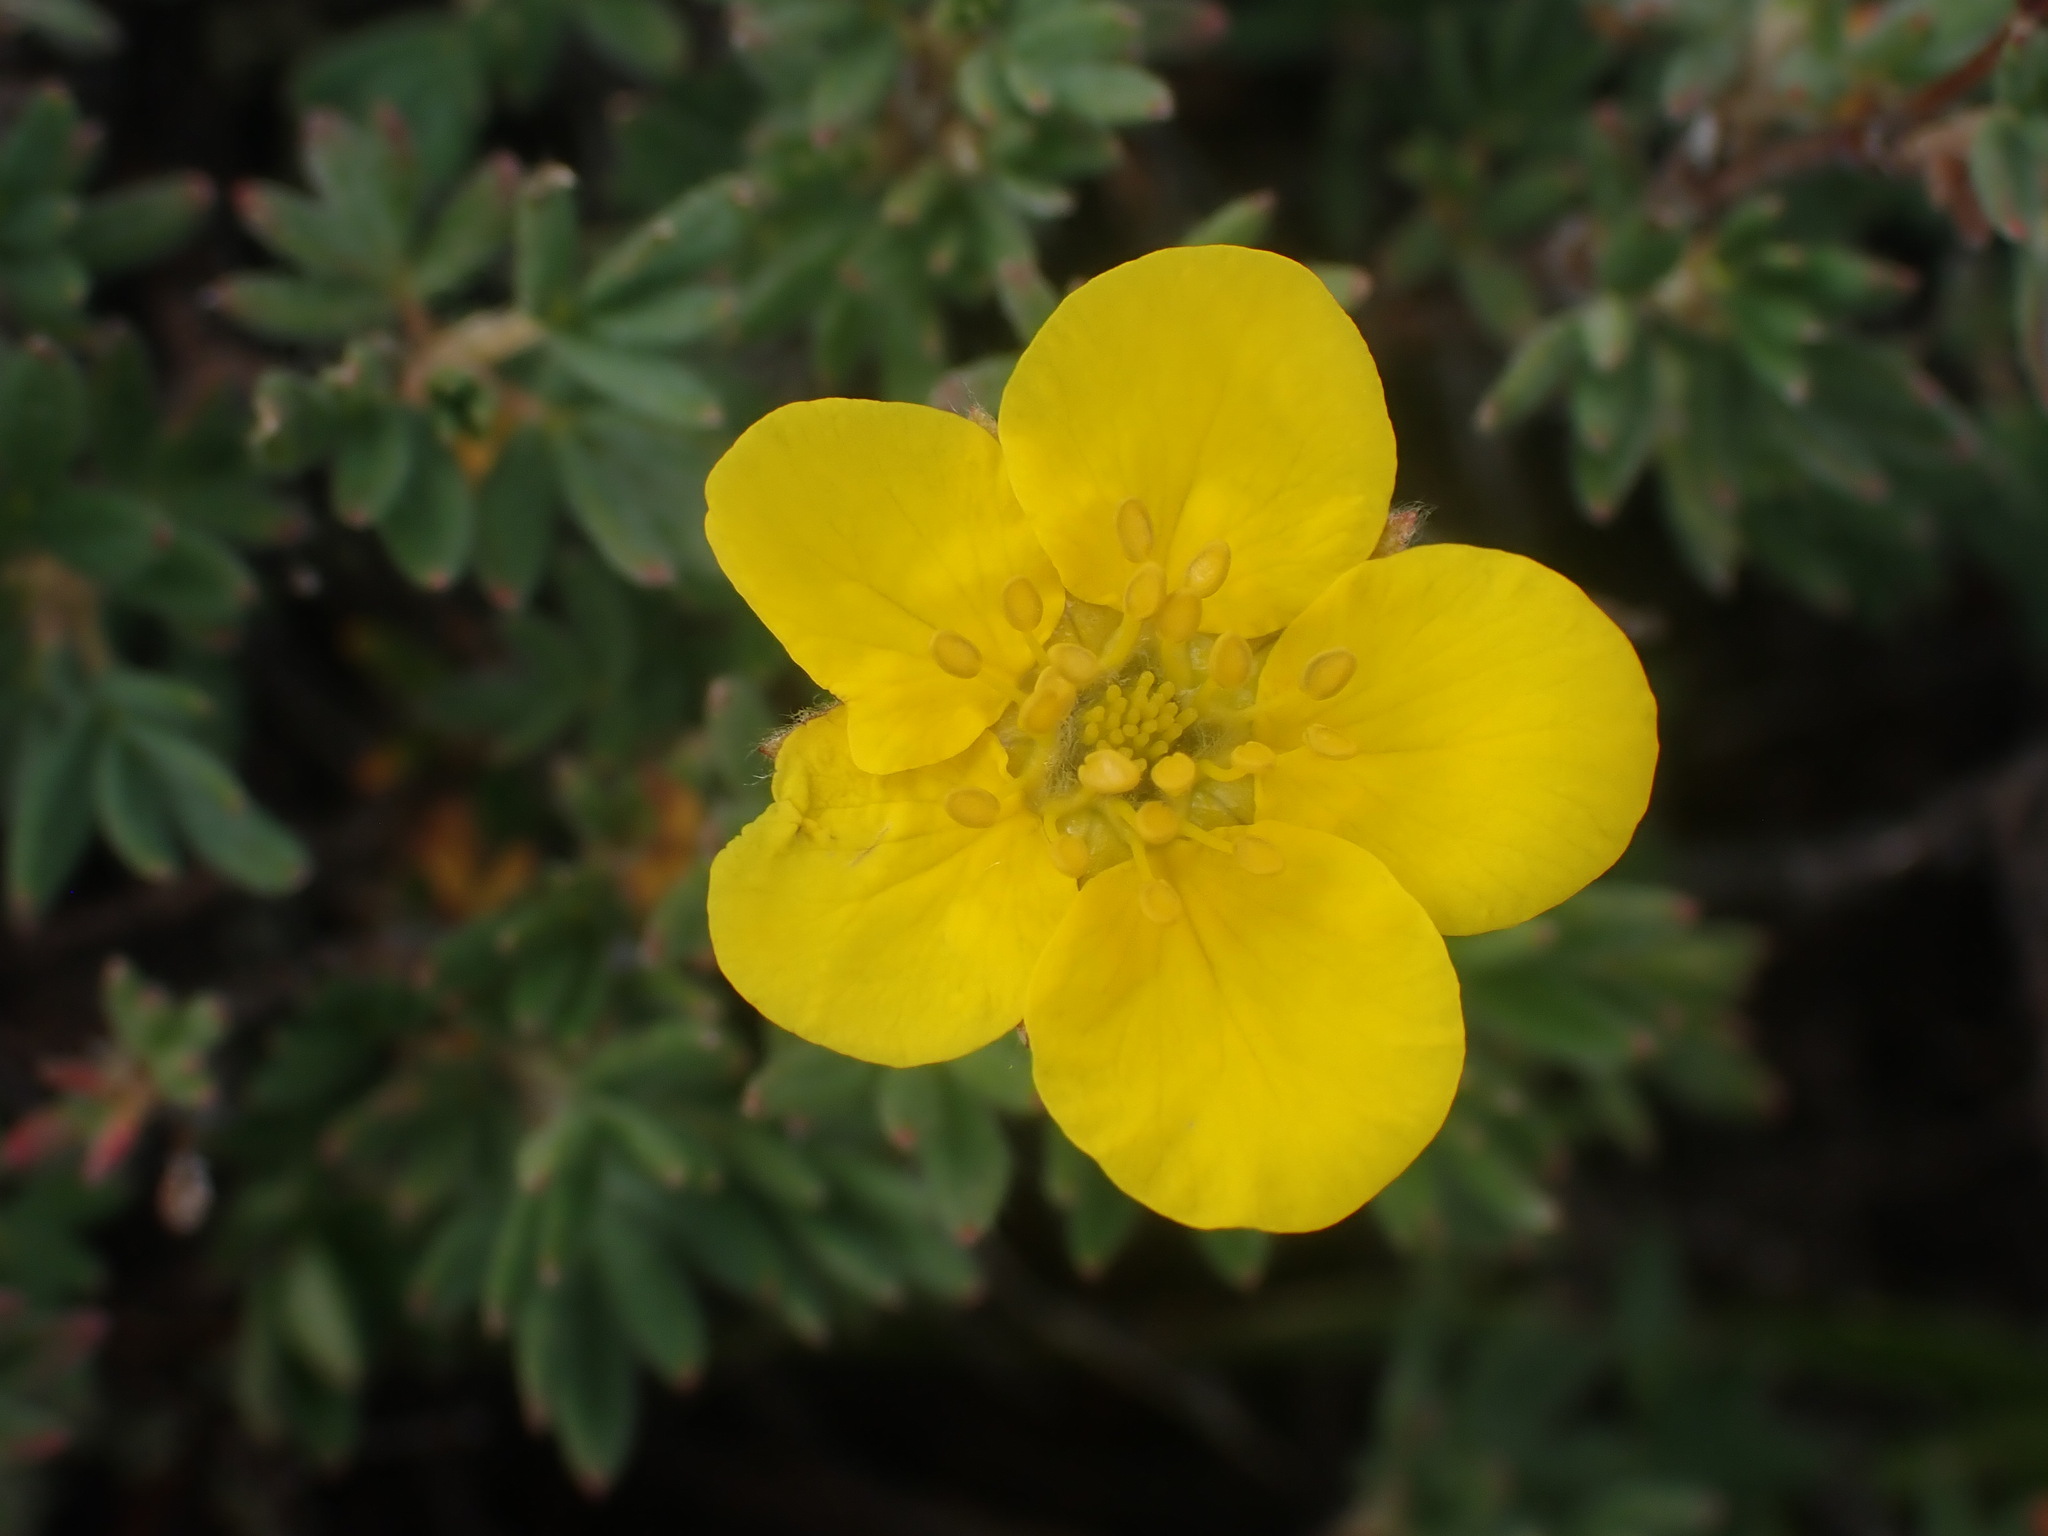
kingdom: Plantae
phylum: Tracheophyta
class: Magnoliopsida
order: Rosales
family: Rosaceae
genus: Dasiphora
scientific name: Dasiphora fruticosa
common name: Shrubby cinquefoil
